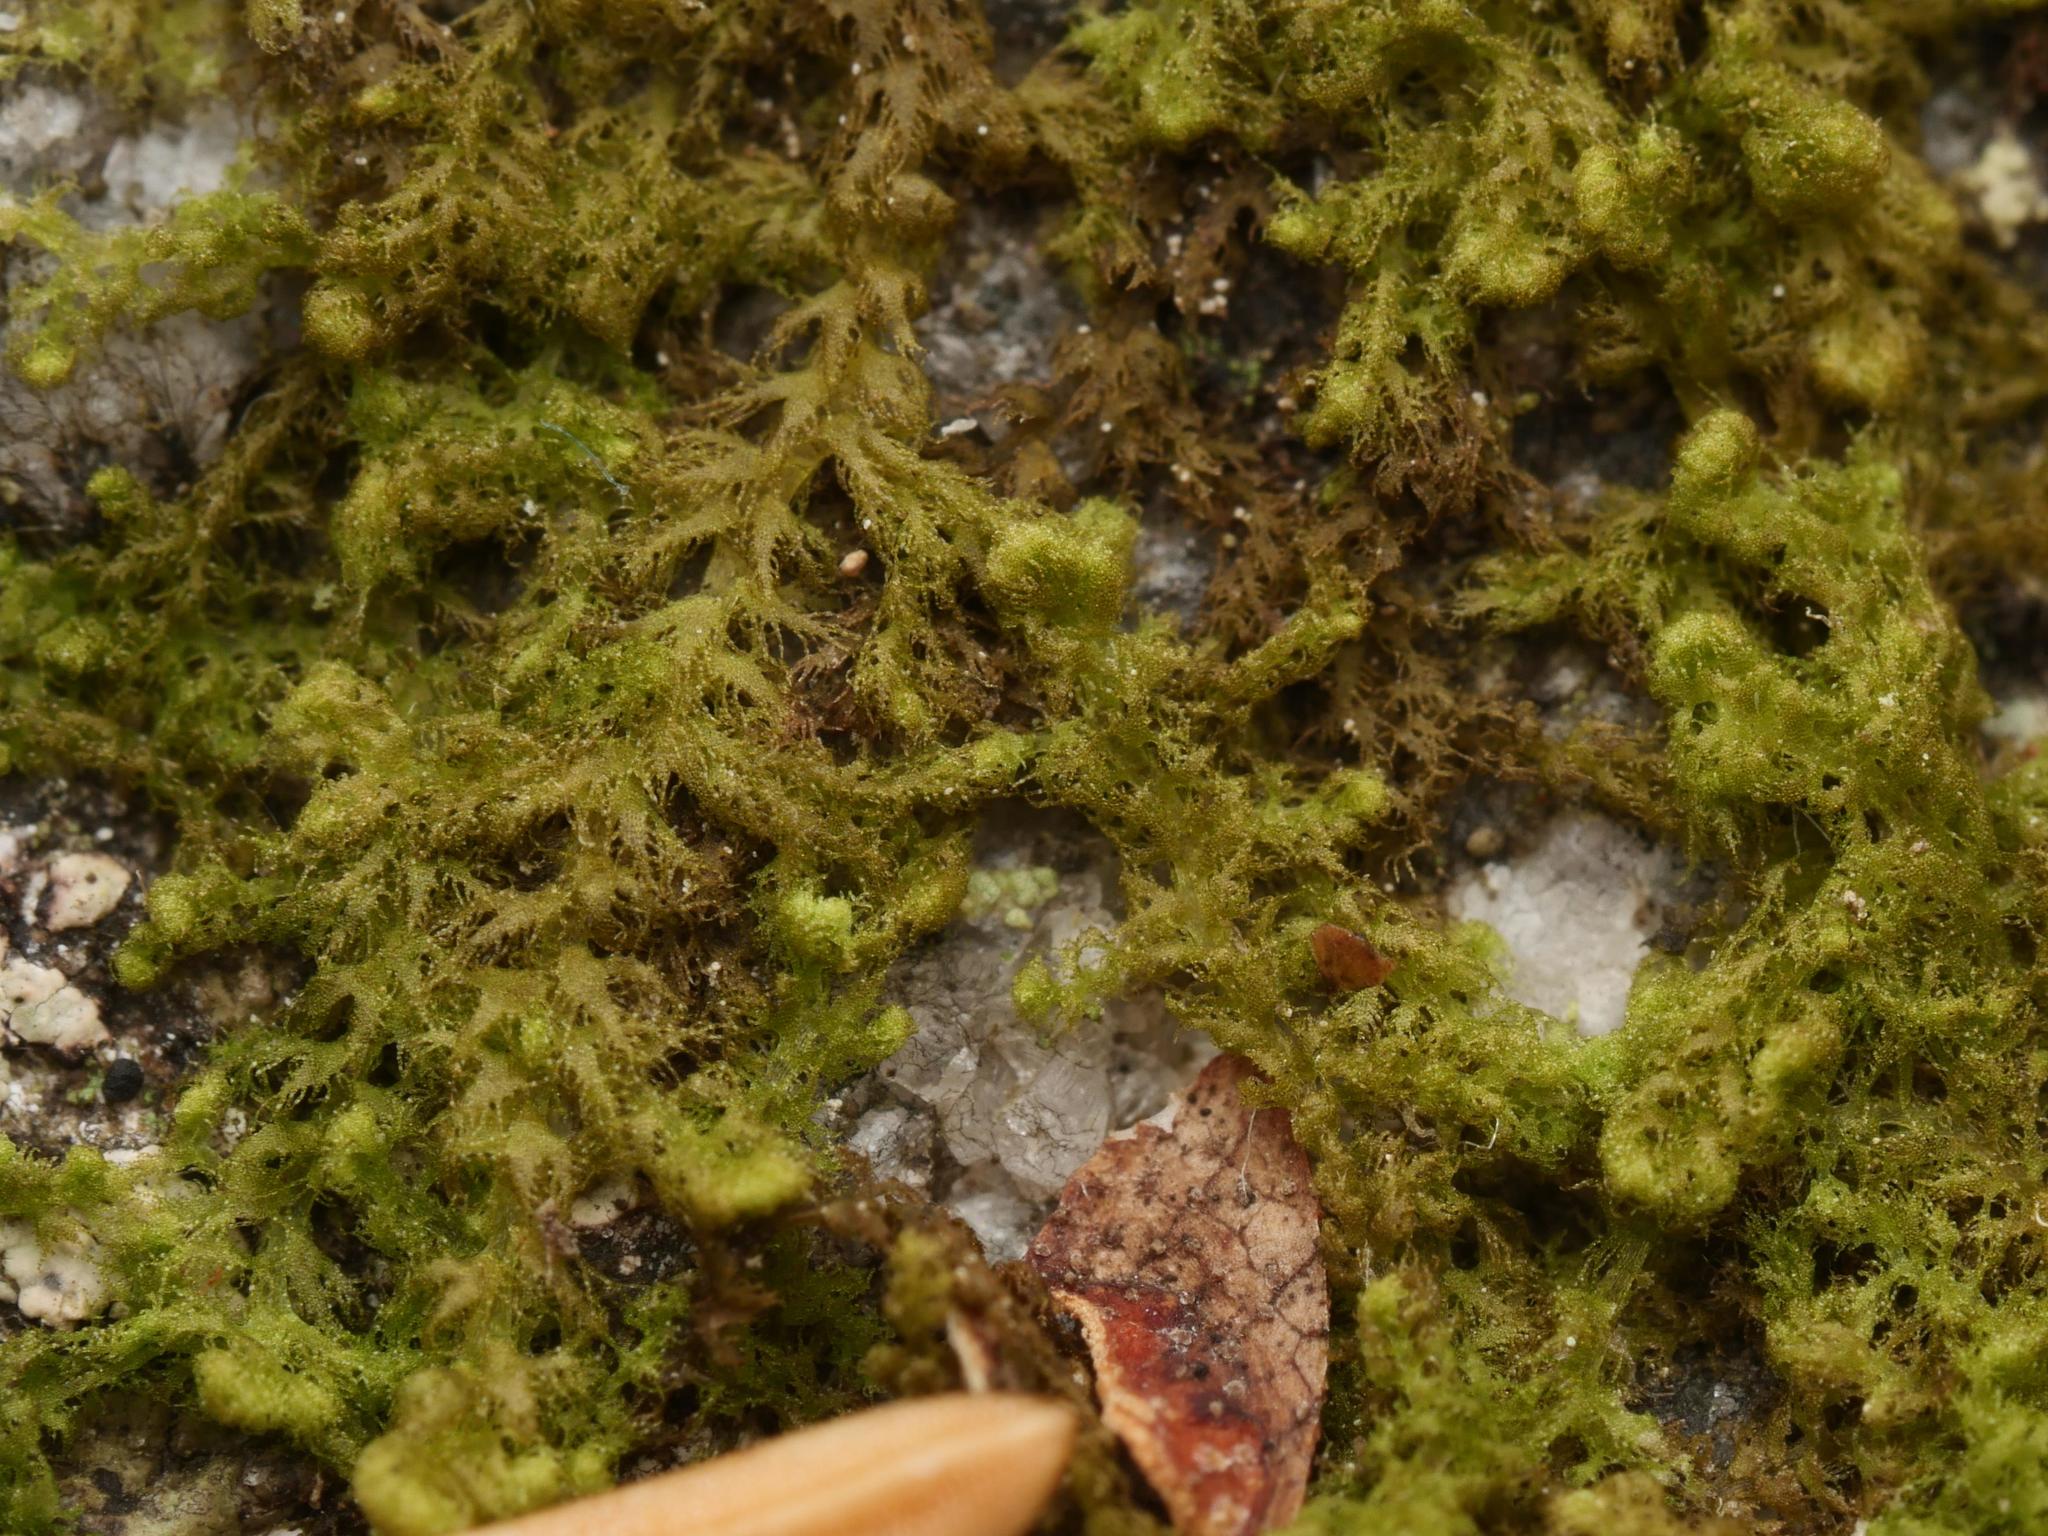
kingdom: Plantae
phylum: Marchantiophyta
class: Jungermanniopsida
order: Ptilidiales
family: Ptilidiaceae
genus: Ptilidium
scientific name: Ptilidium pulcherrimum
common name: Tree fringewort
